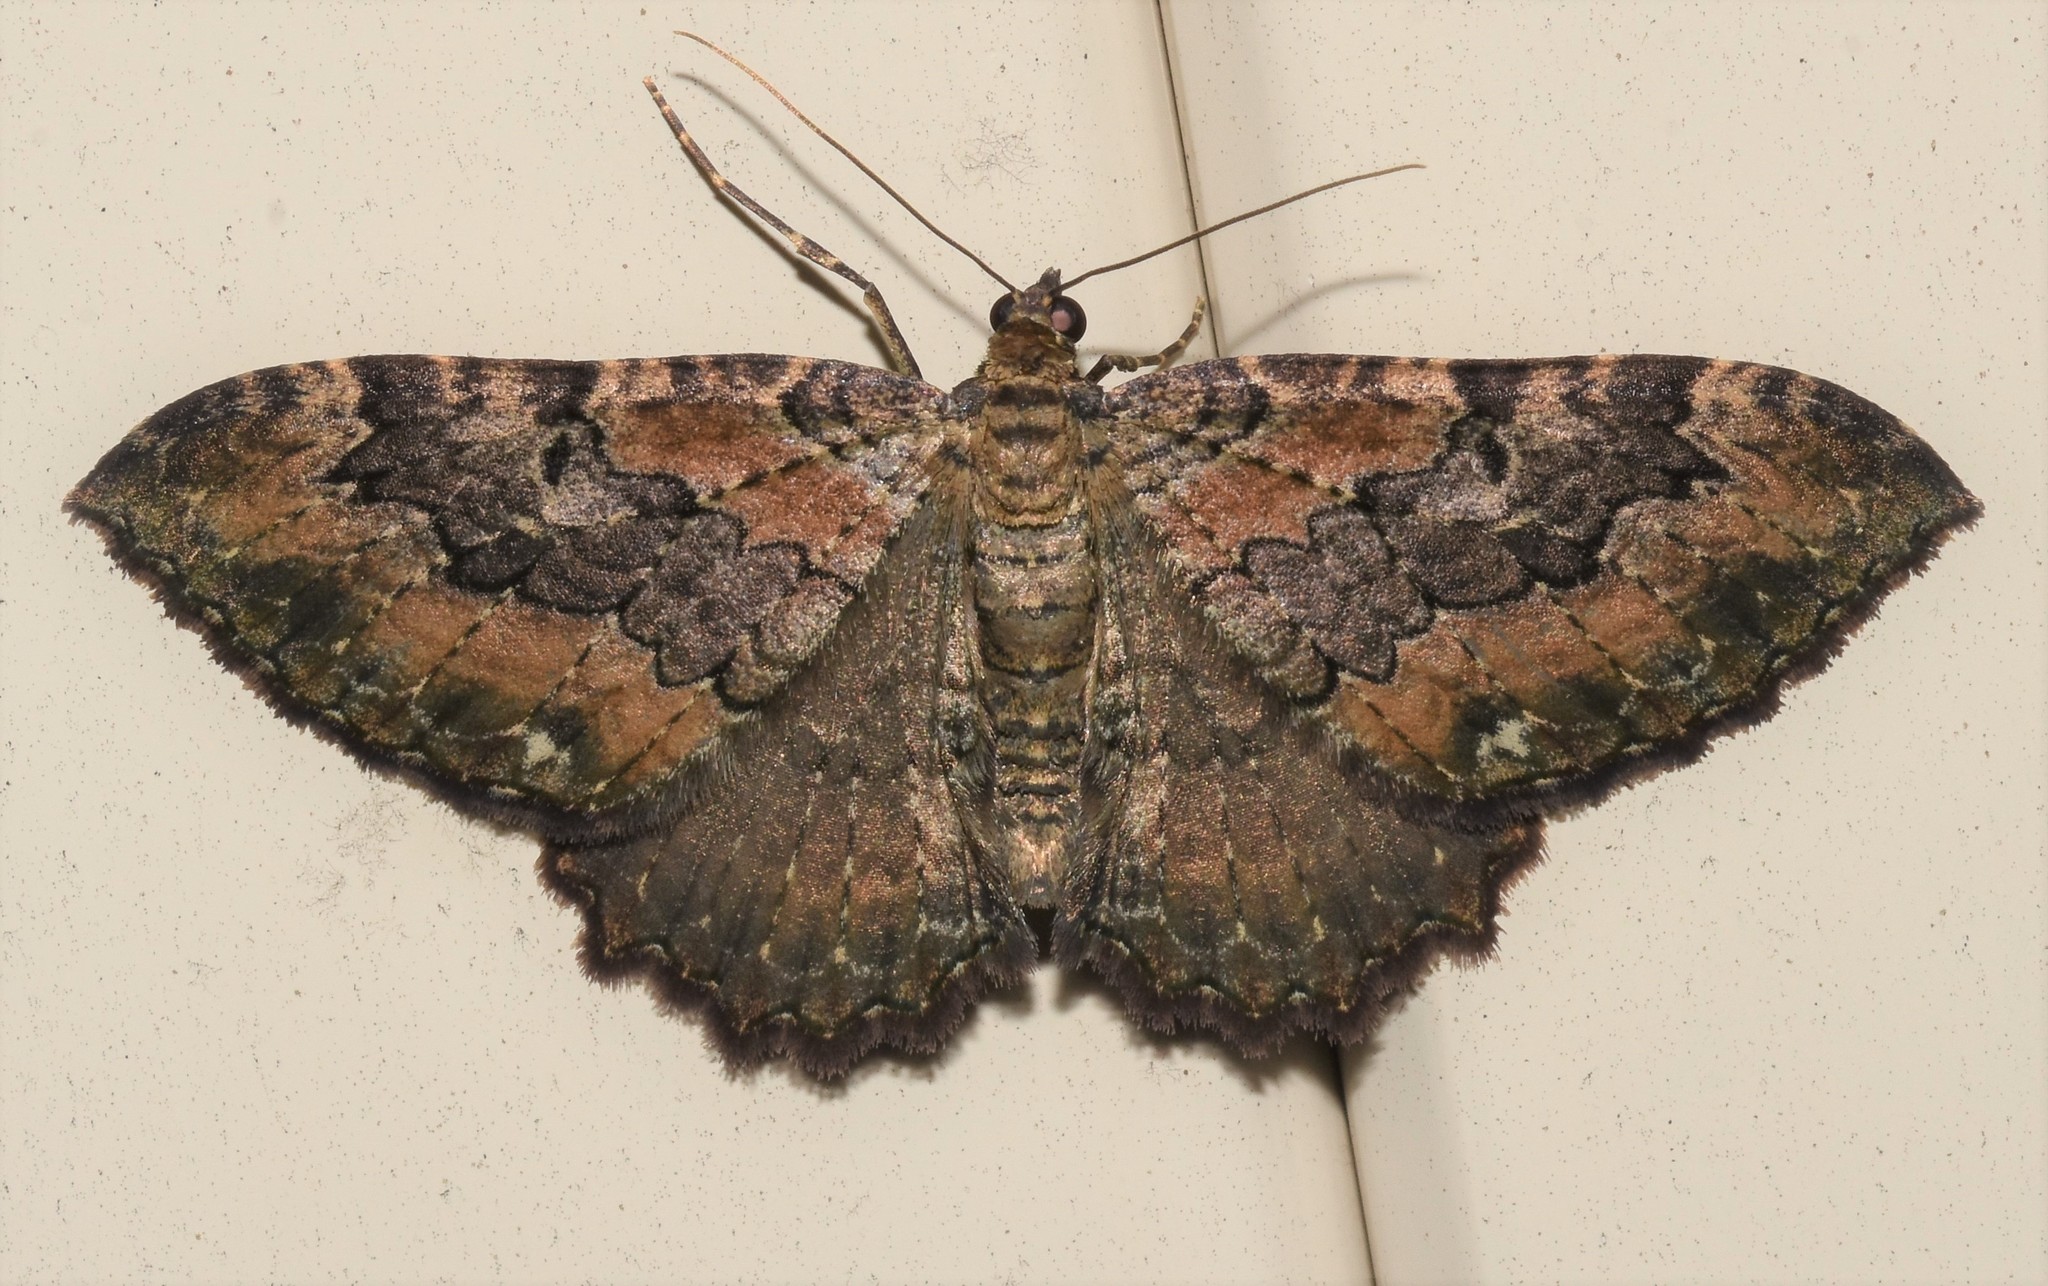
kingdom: Animalia
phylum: Arthropoda
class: Insecta
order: Lepidoptera
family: Geometridae
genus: Rheumaptera
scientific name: Rheumaptera
